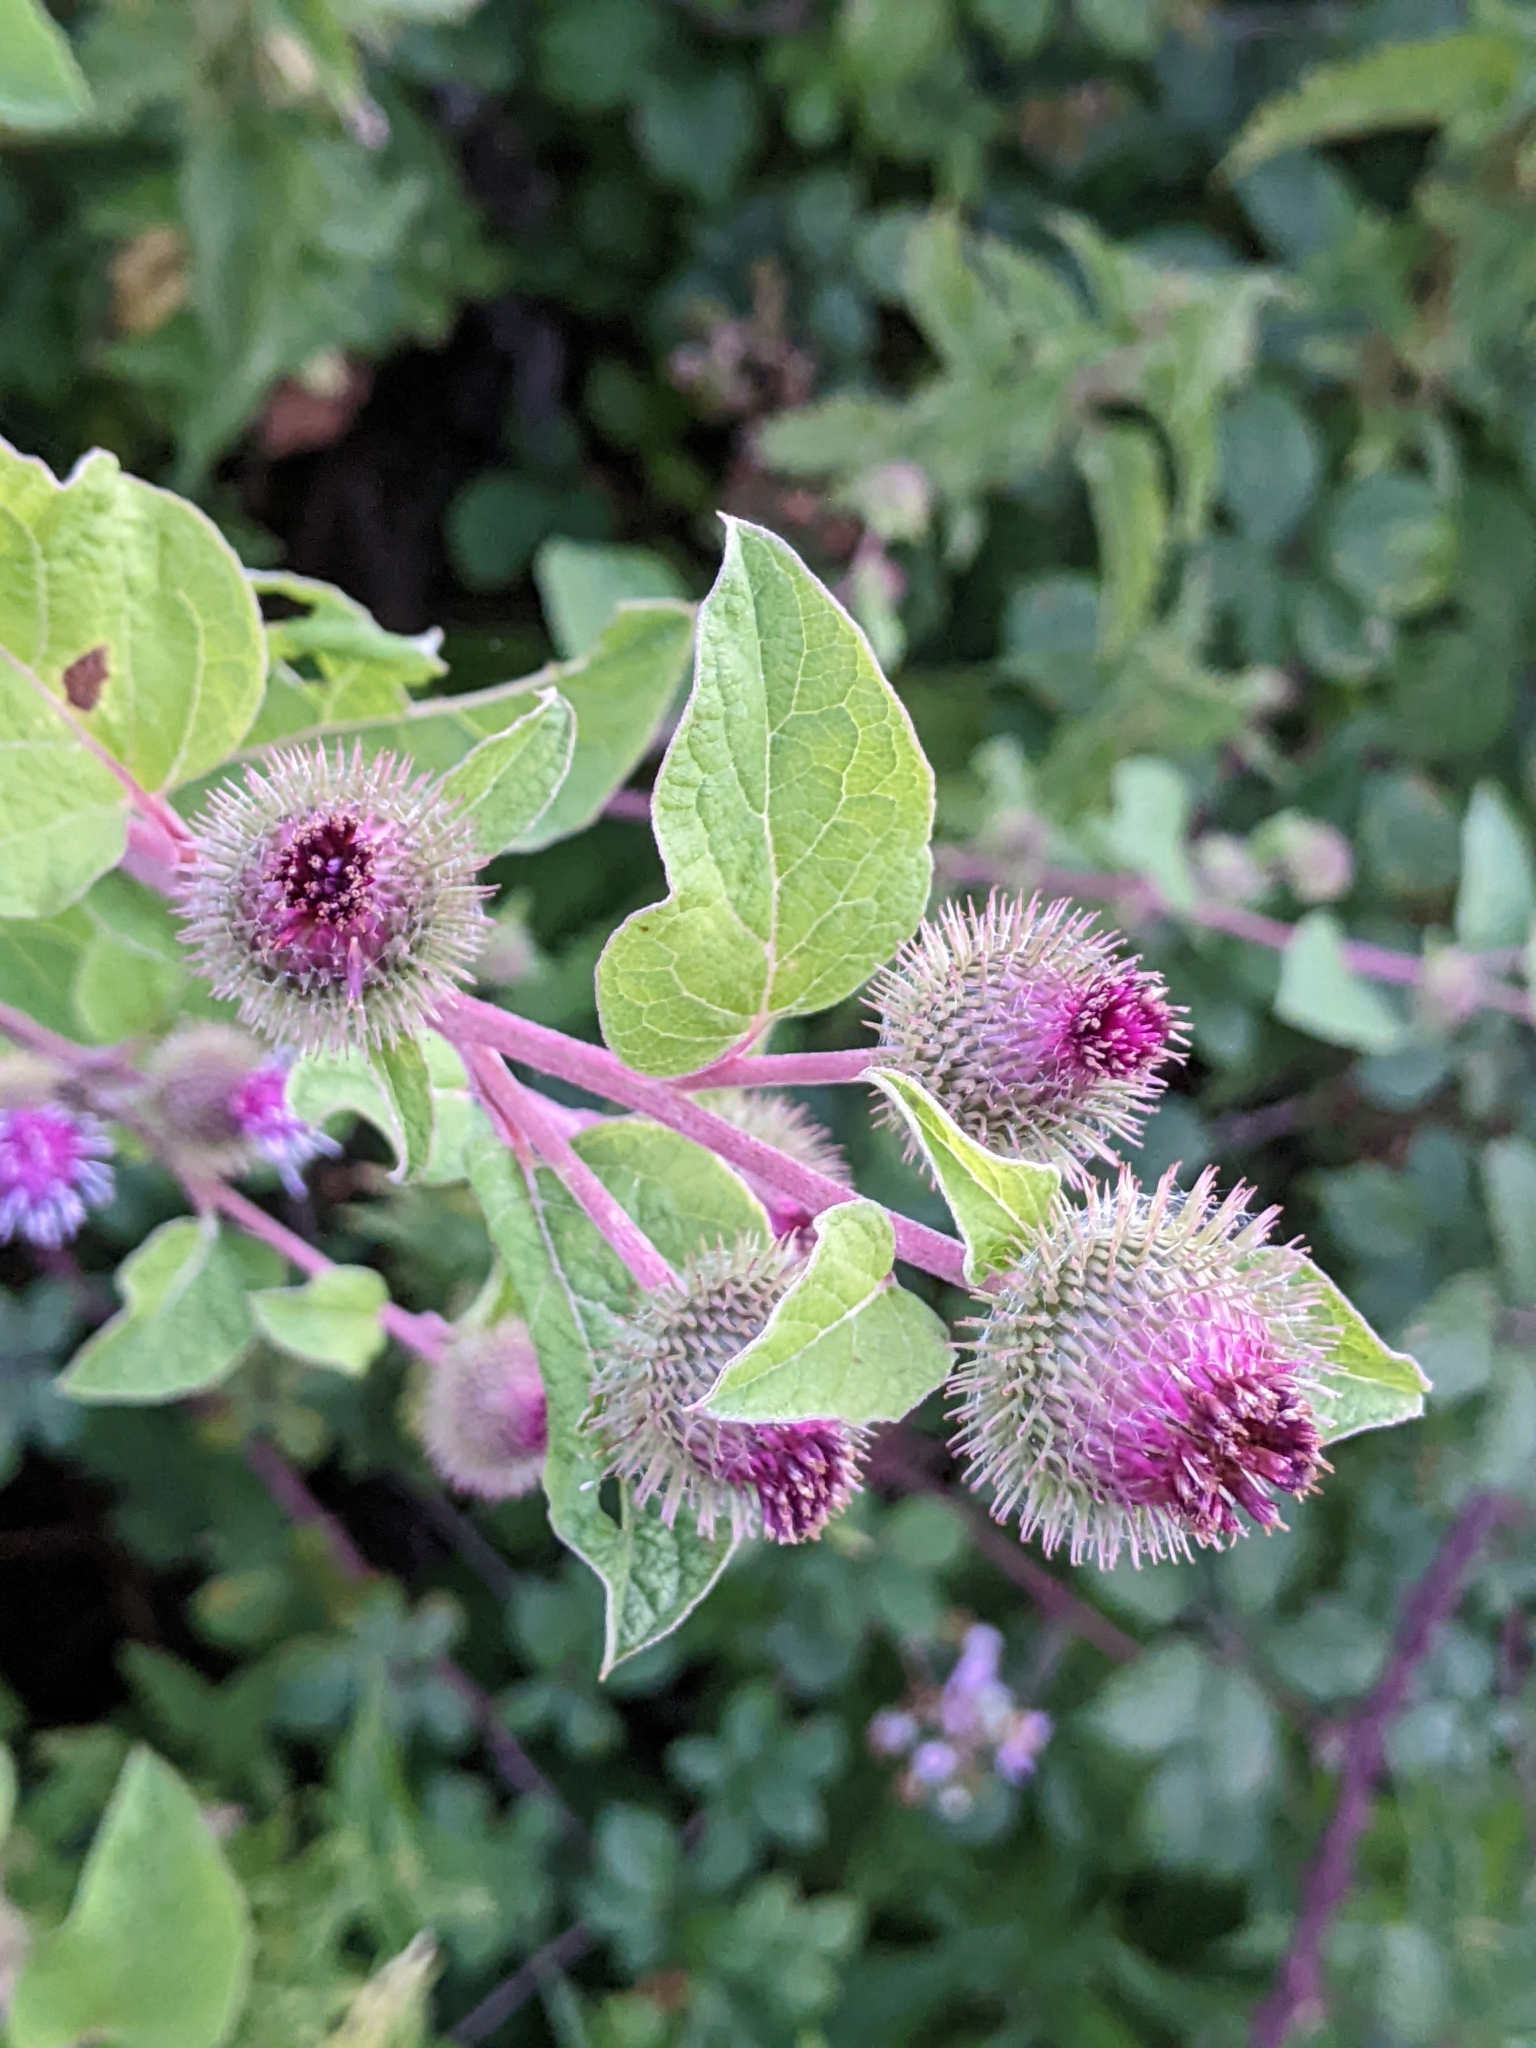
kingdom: Plantae
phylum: Tracheophyta
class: Magnoliopsida
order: Asterales
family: Asteraceae
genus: Arctium
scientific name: Arctium minus
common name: Lesser burdock
